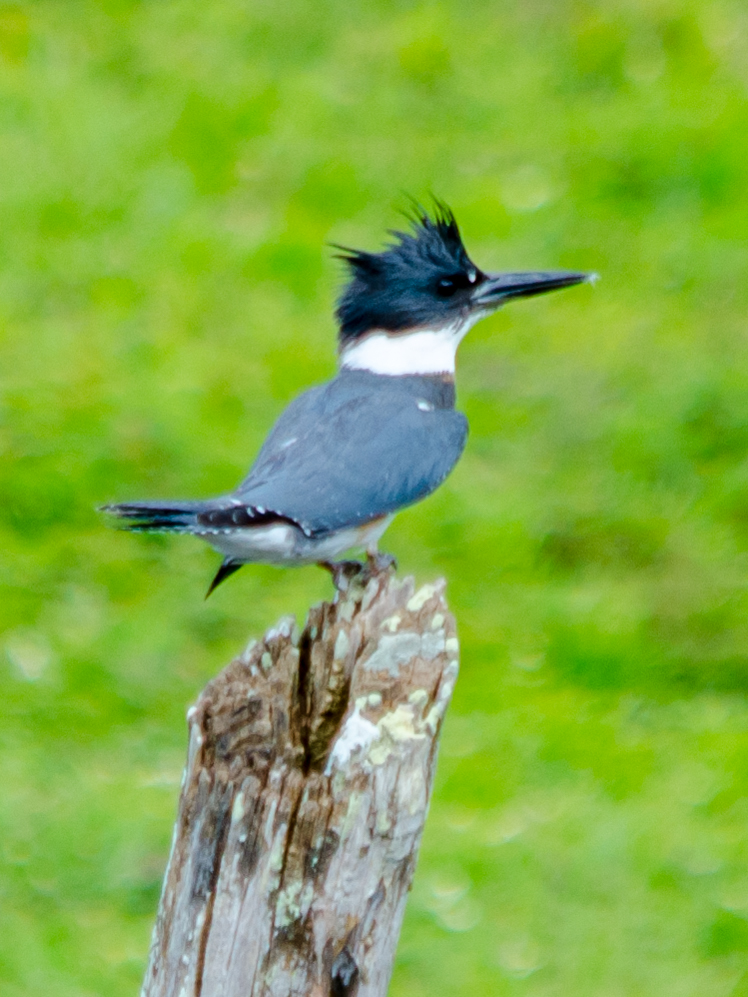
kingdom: Animalia
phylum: Chordata
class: Aves
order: Coraciiformes
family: Alcedinidae
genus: Megaceryle
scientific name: Megaceryle alcyon
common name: Belted kingfisher
